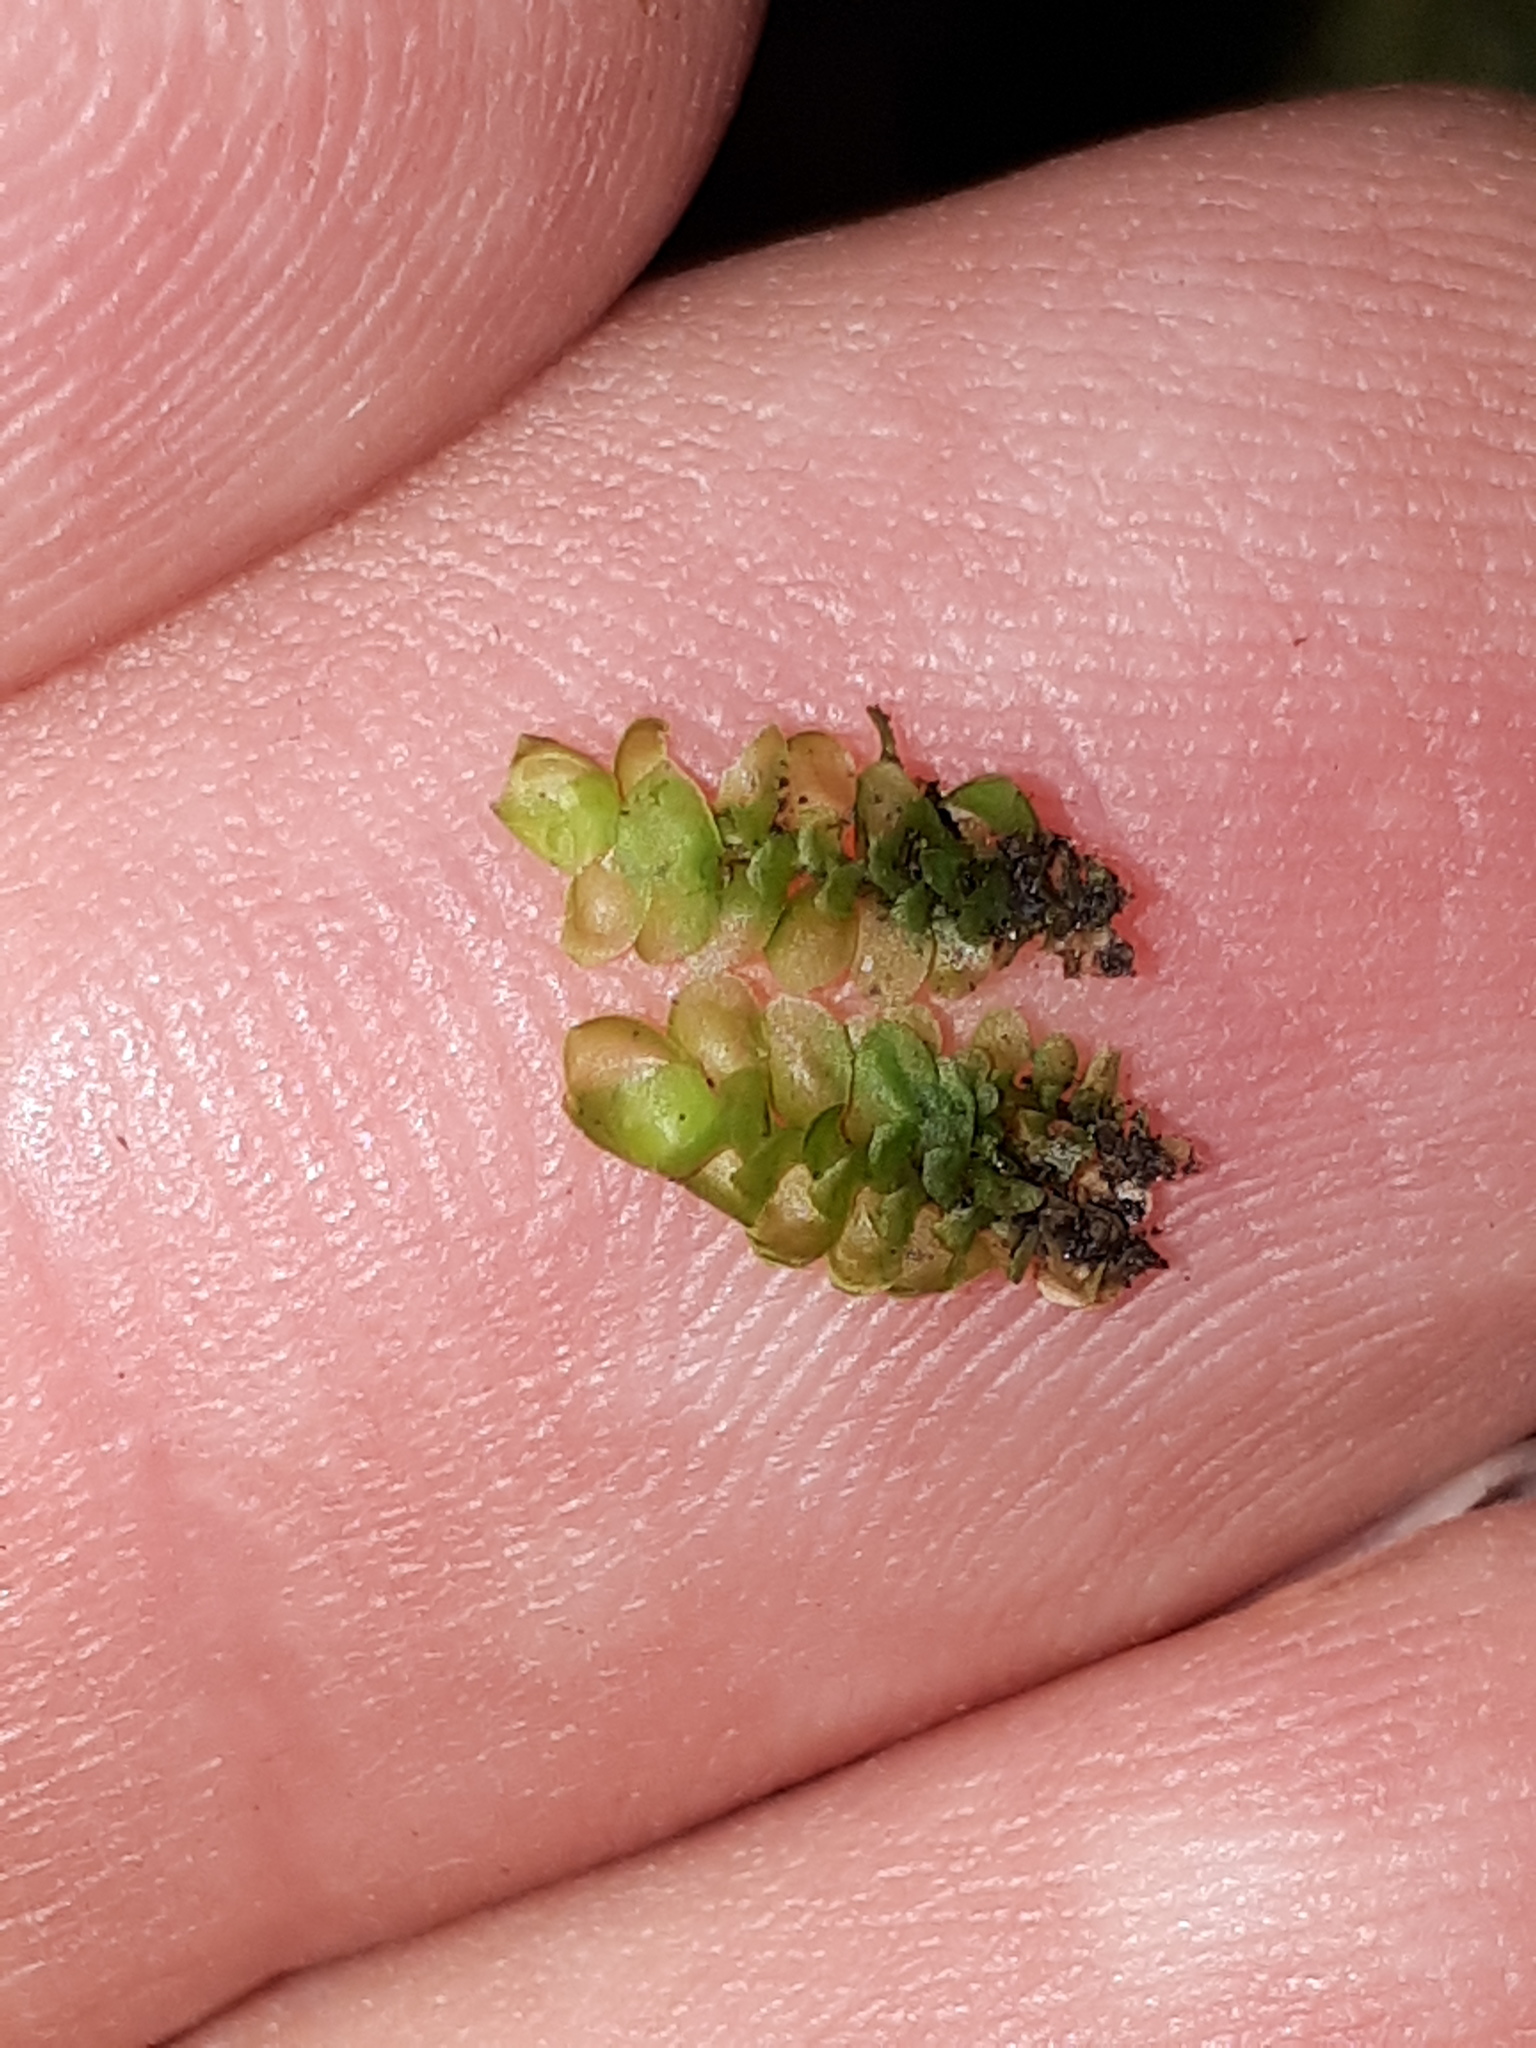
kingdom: Plantae
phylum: Marchantiophyta
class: Jungermanniopsida
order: Jungermanniales
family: Scapaniaceae
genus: Scapania
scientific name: Scapania nemorea
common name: Grove earwort
